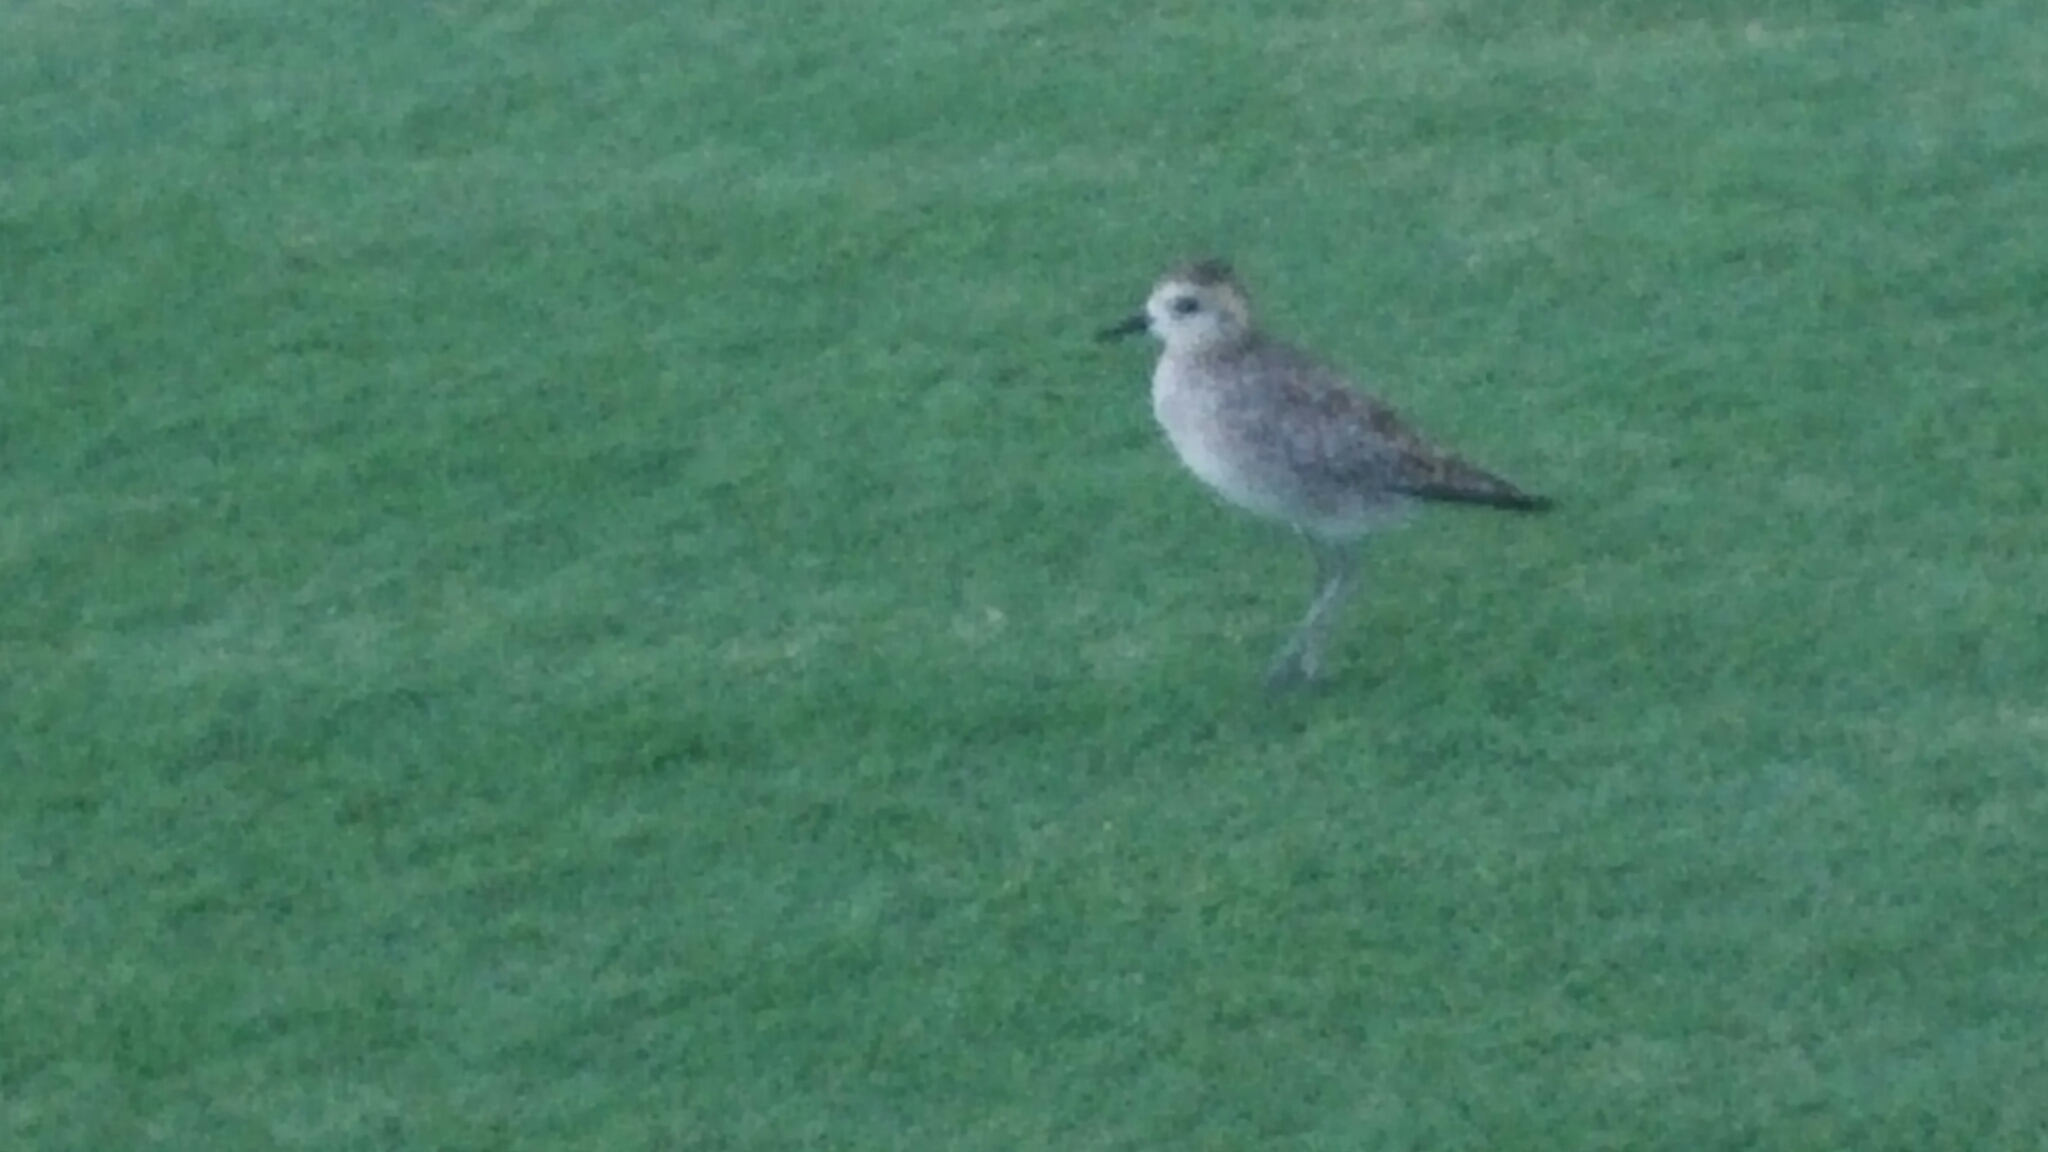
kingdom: Animalia
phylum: Chordata
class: Aves
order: Charadriiformes
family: Charadriidae
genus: Pluvialis
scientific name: Pluvialis fulva
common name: Pacific golden plover
